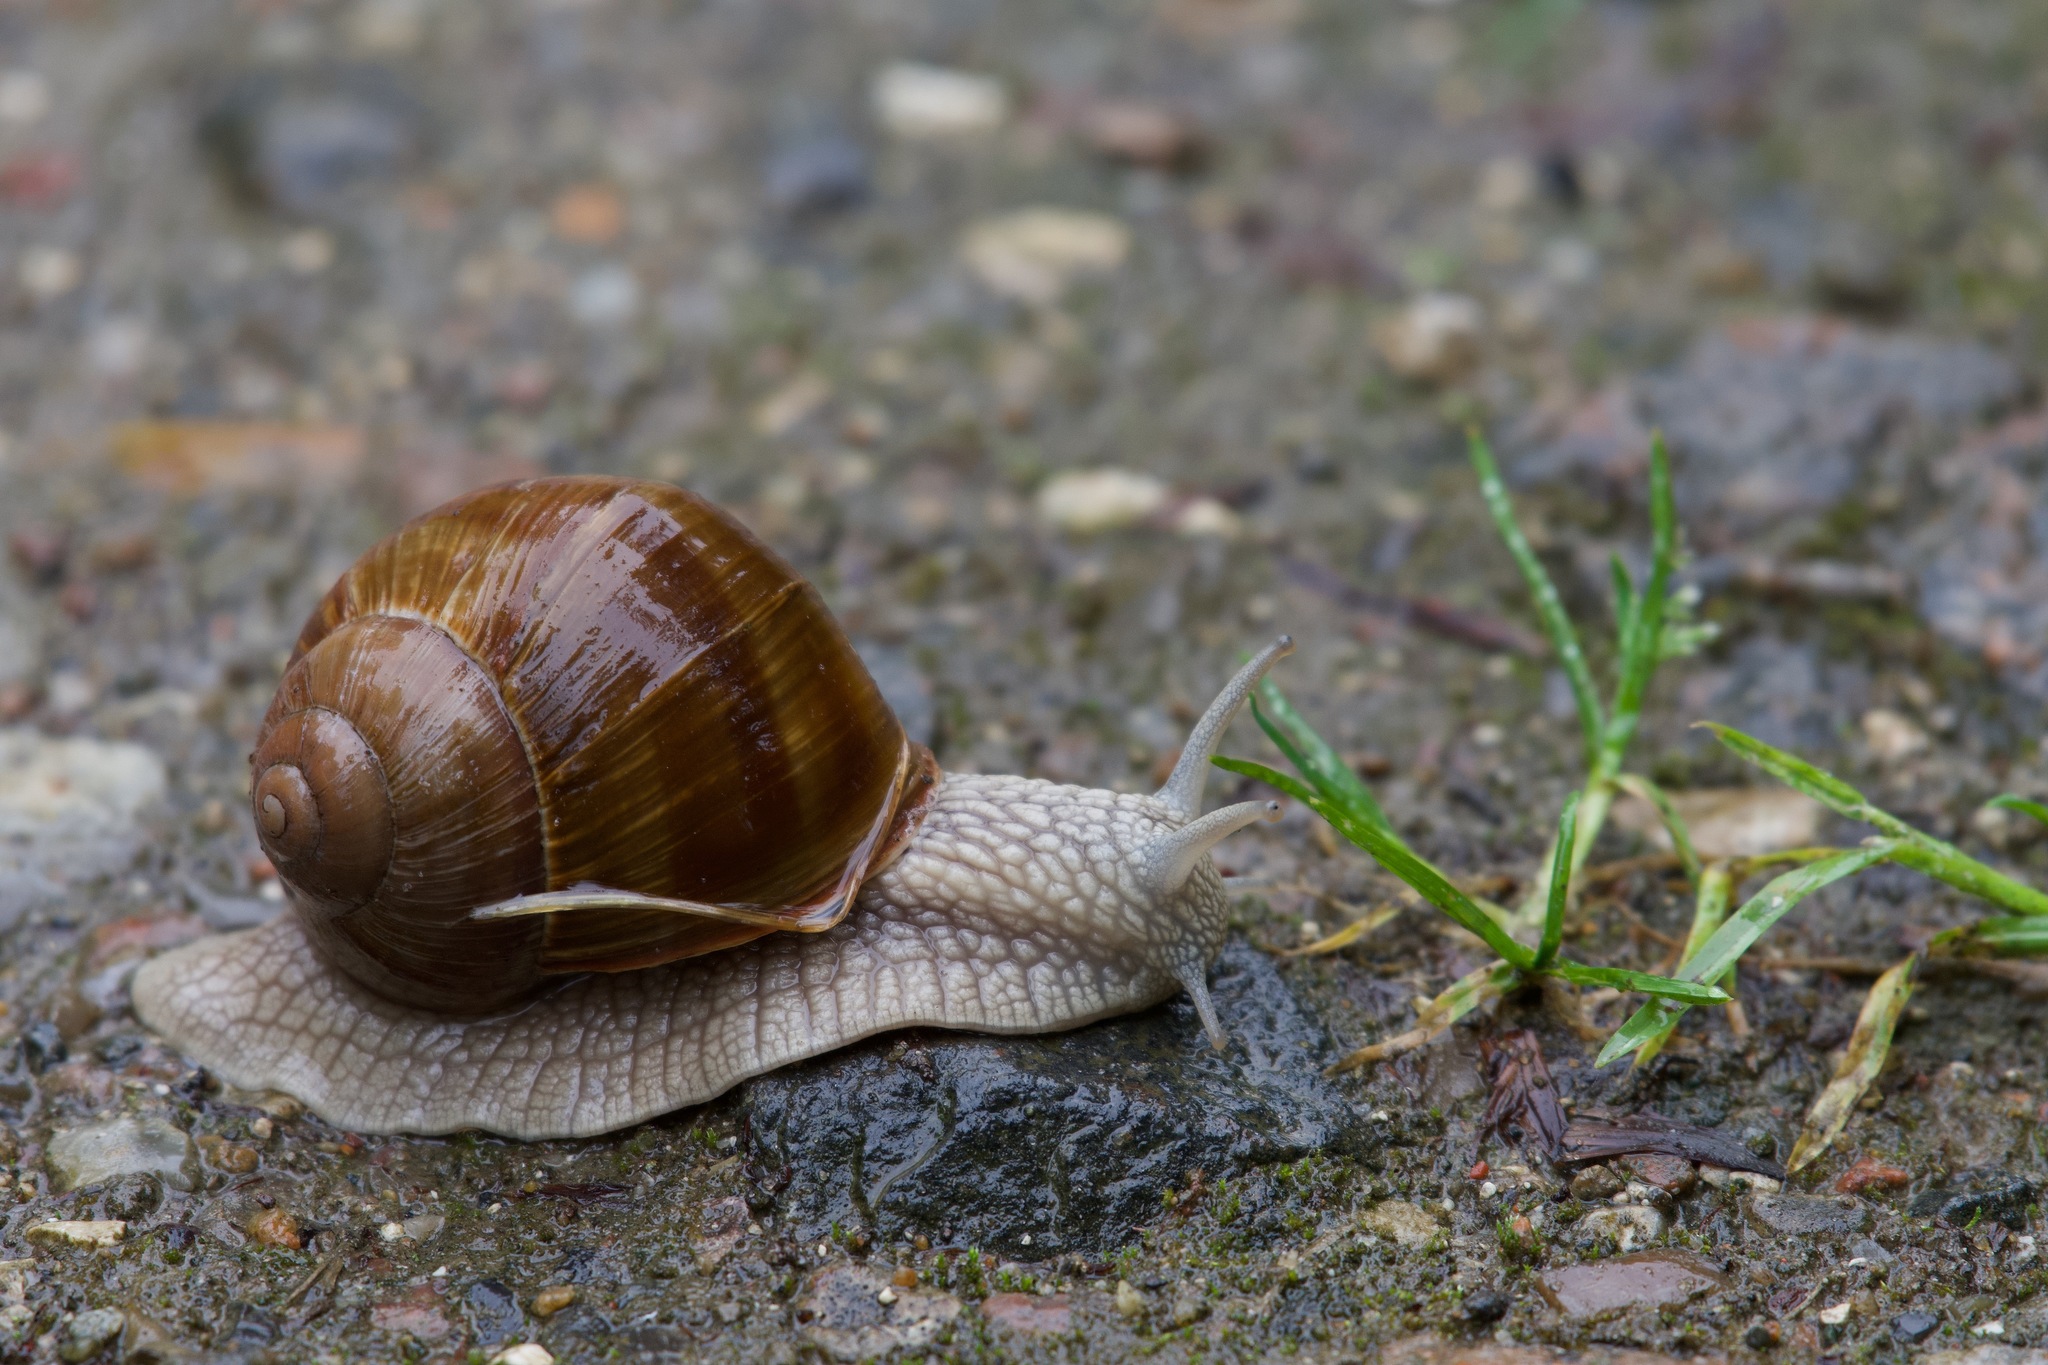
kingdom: Animalia
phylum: Mollusca
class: Gastropoda
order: Stylommatophora
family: Helicidae
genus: Helix
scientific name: Helix pomatia
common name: Roman snail
